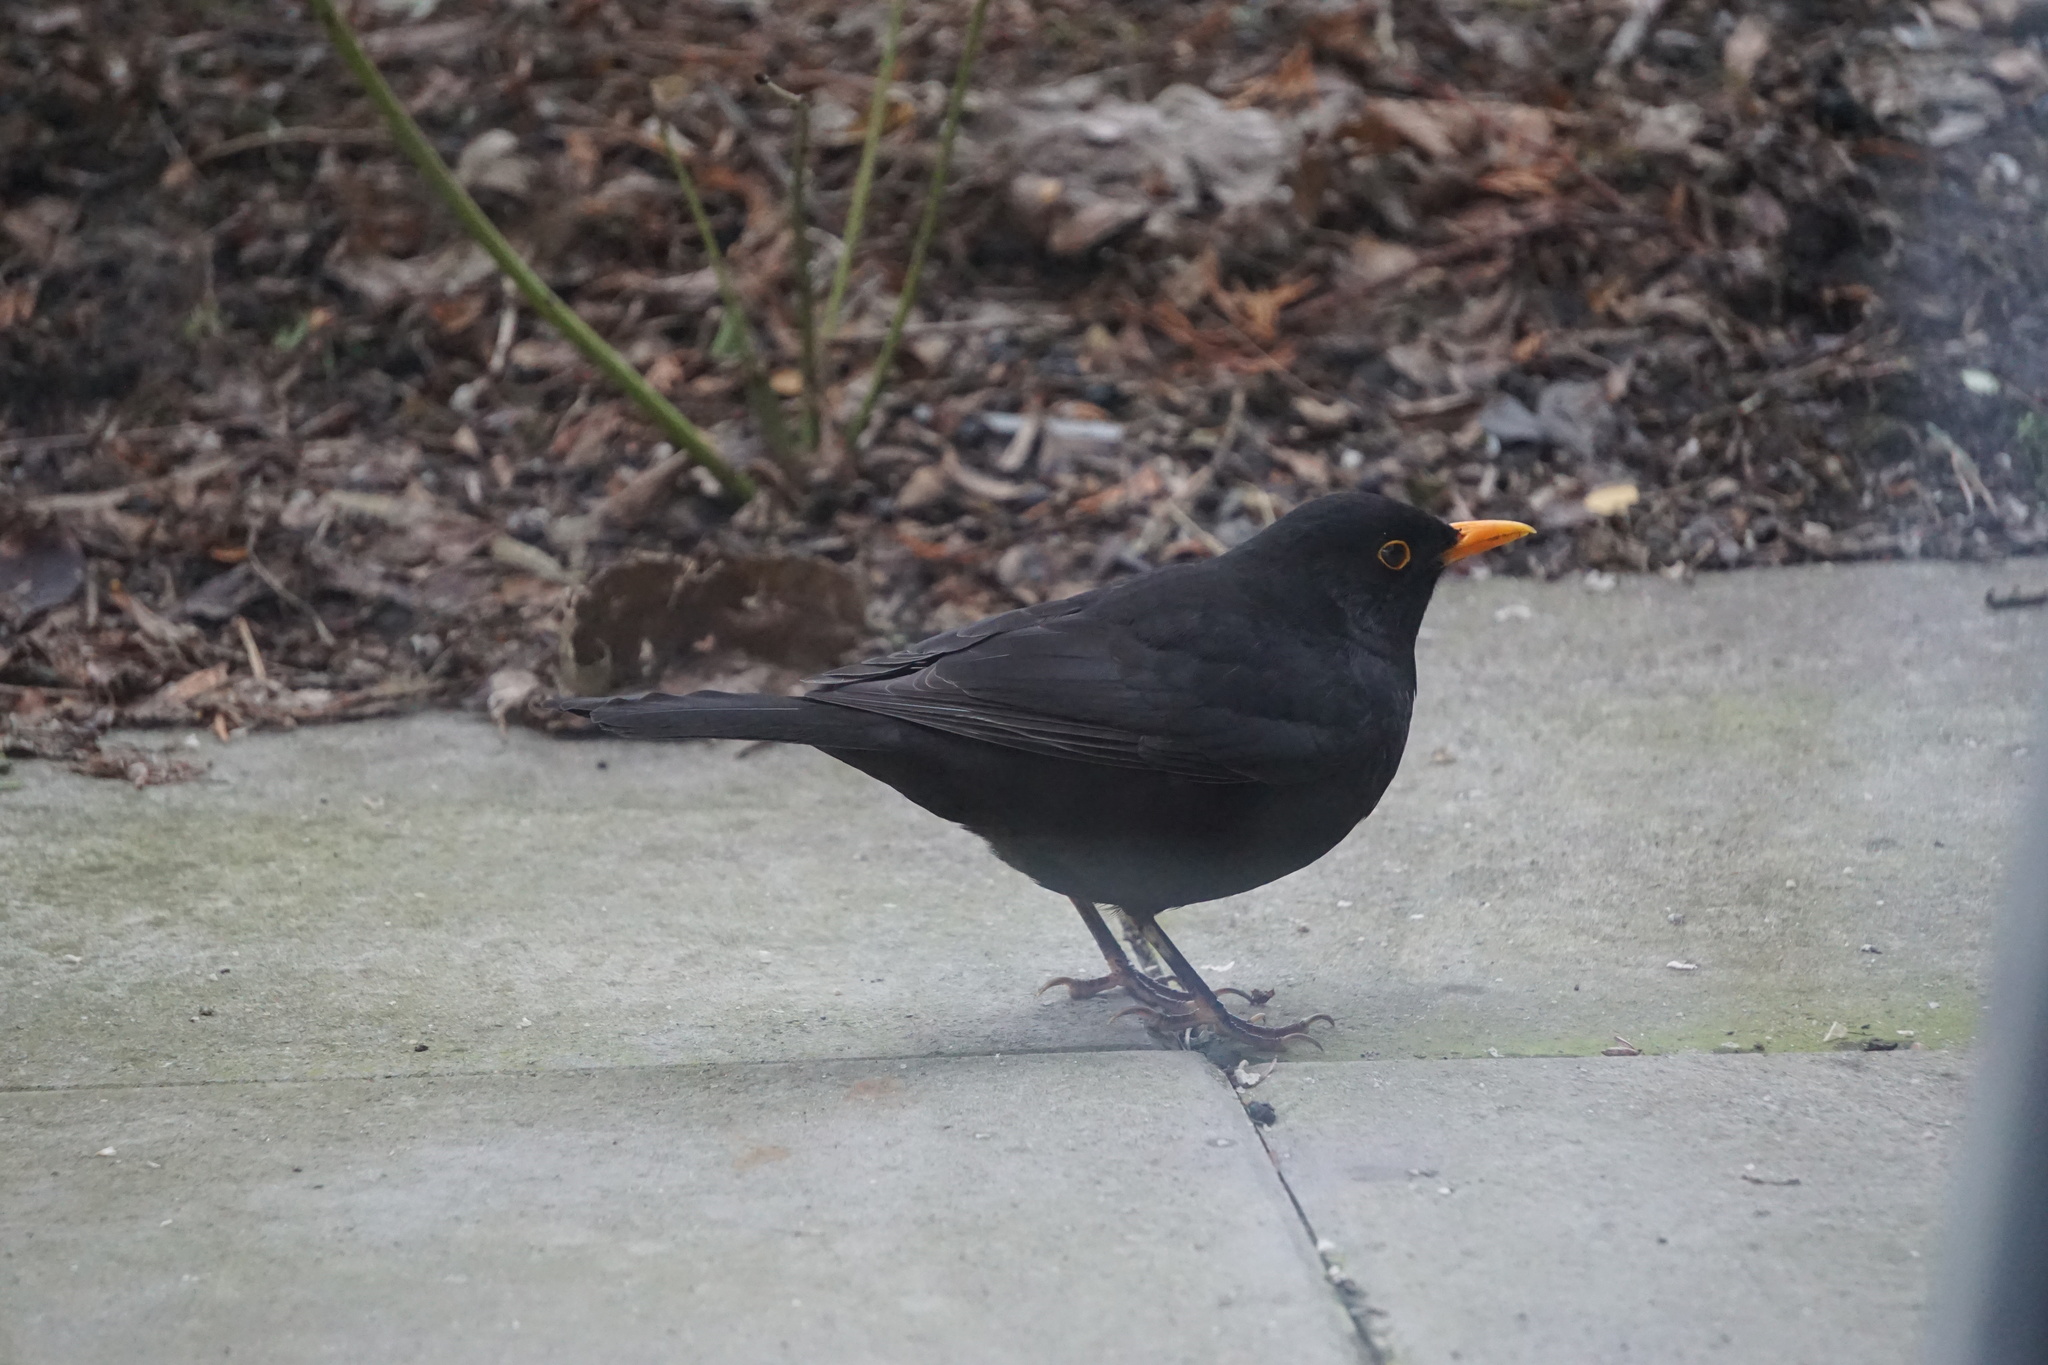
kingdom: Animalia
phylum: Chordata
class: Aves
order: Passeriformes
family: Turdidae
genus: Turdus
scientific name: Turdus merula
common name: Common blackbird
